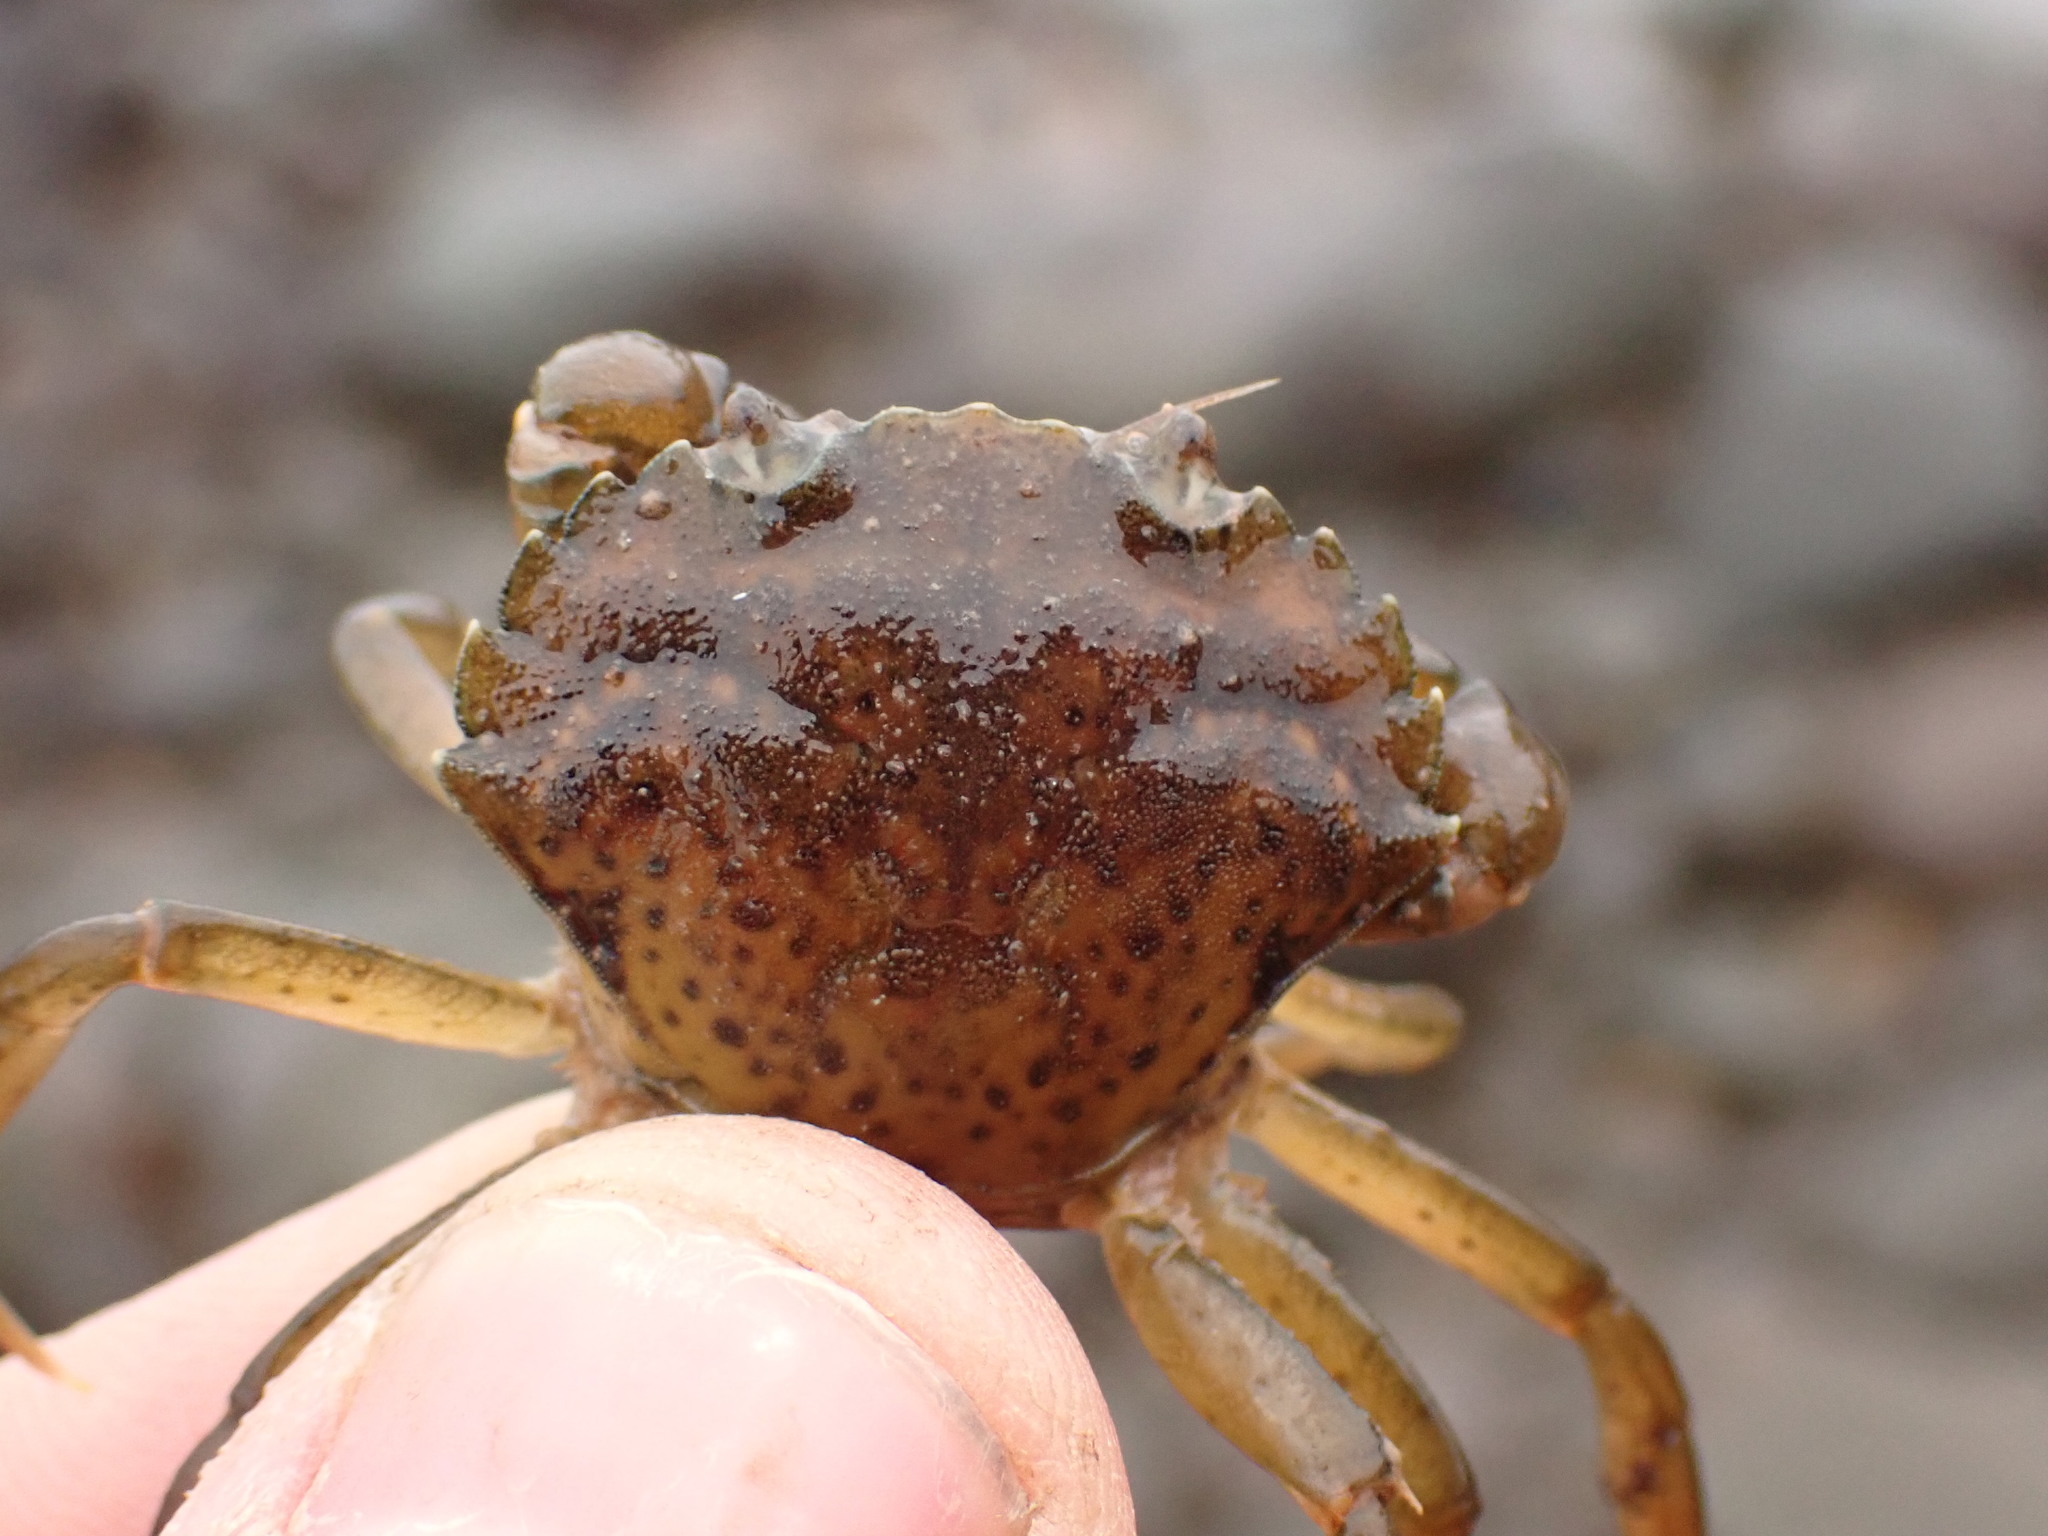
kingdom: Animalia
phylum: Arthropoda
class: Malacostraca
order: Decapoda
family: Carcinidae
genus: Carcinus
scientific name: Carcinus maenas
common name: European green crab
